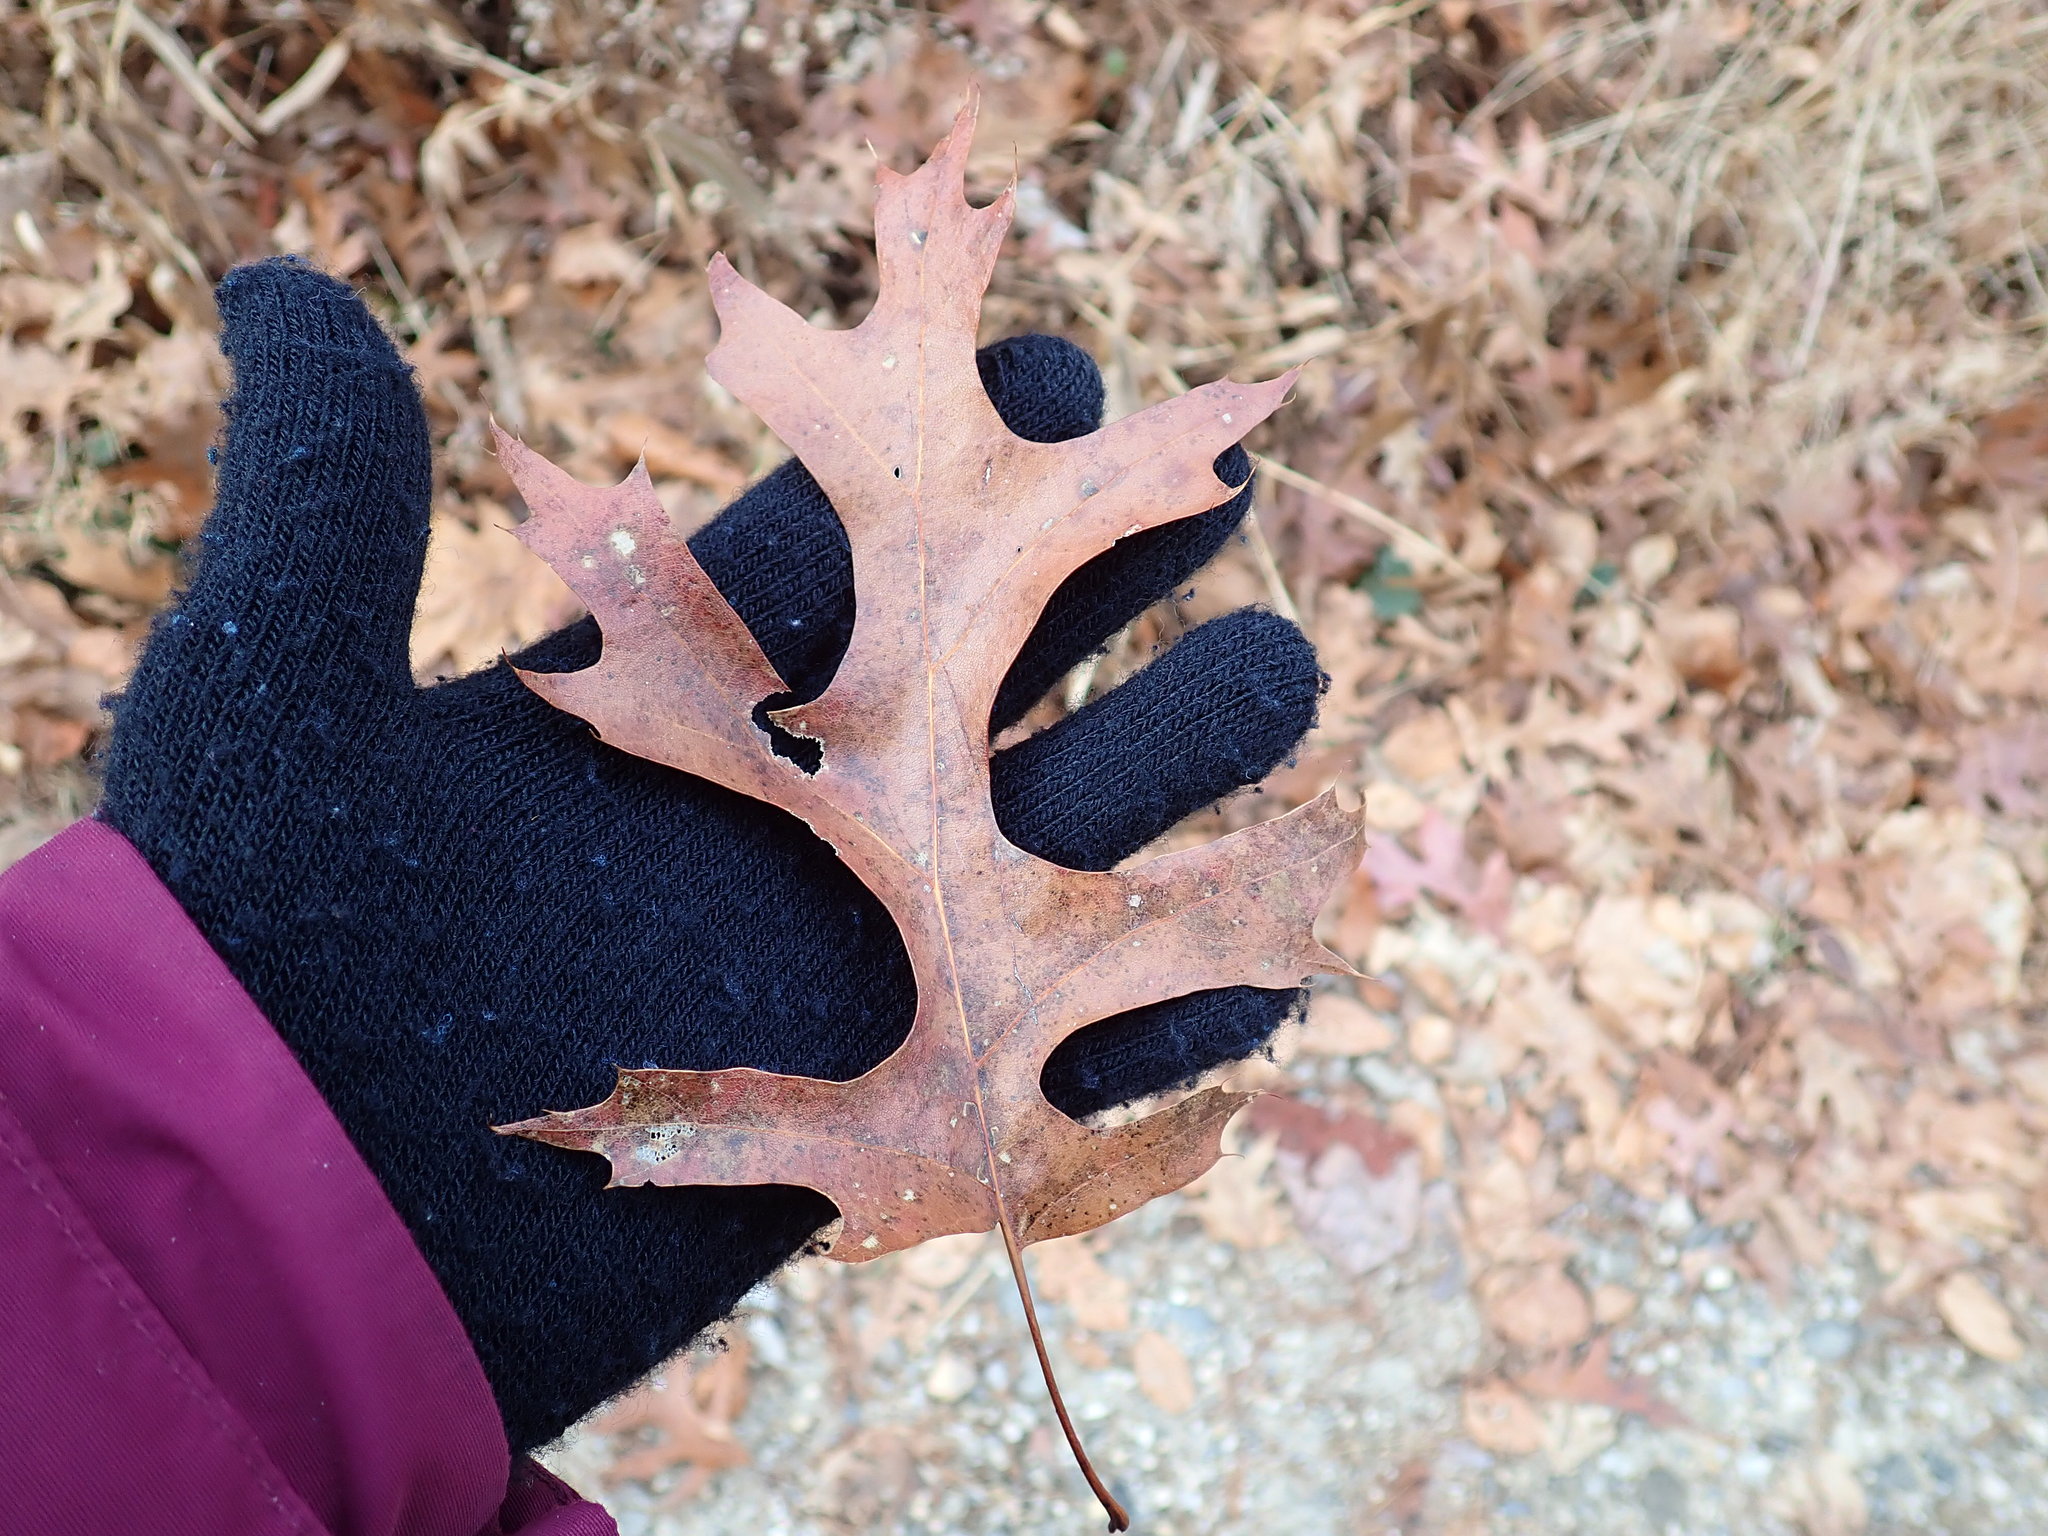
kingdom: Plantae
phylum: Tracheophyta
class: Magnoliopsida
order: Fagales
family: Fagaceae
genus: Quercus
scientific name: Quercus coccinea
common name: Scarlet oak
